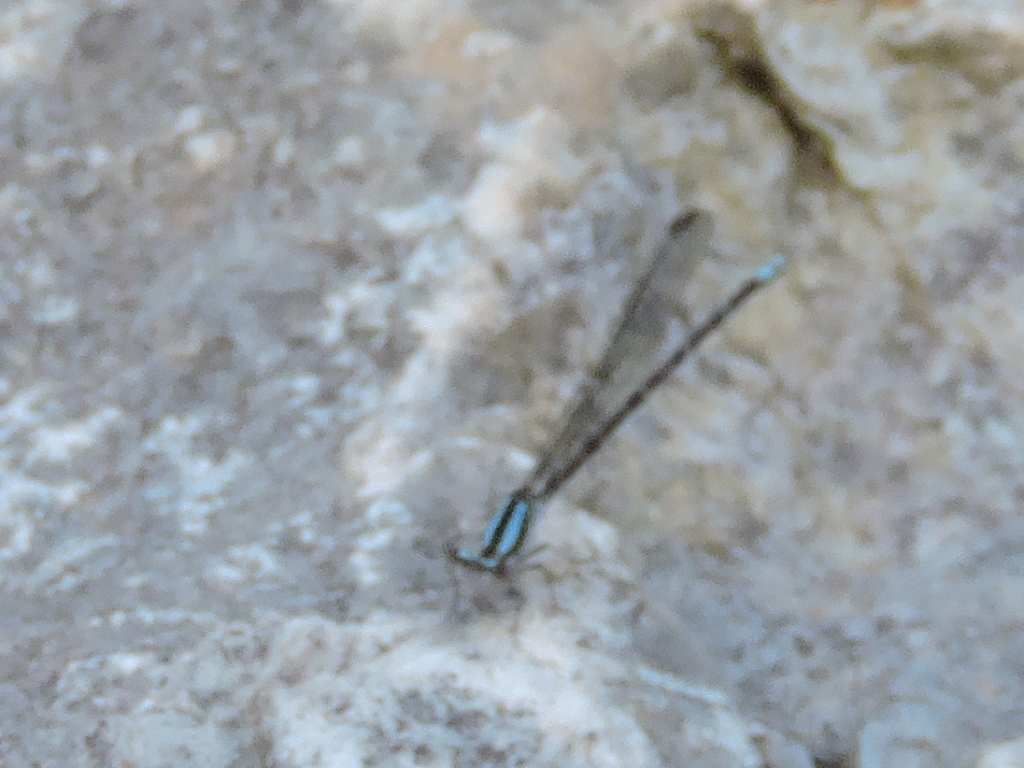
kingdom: Animalia
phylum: Arthropoda
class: Insecta
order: Odonata
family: Coenagrionidae
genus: Argia
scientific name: Argia immunda
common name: Kiowa dancer
